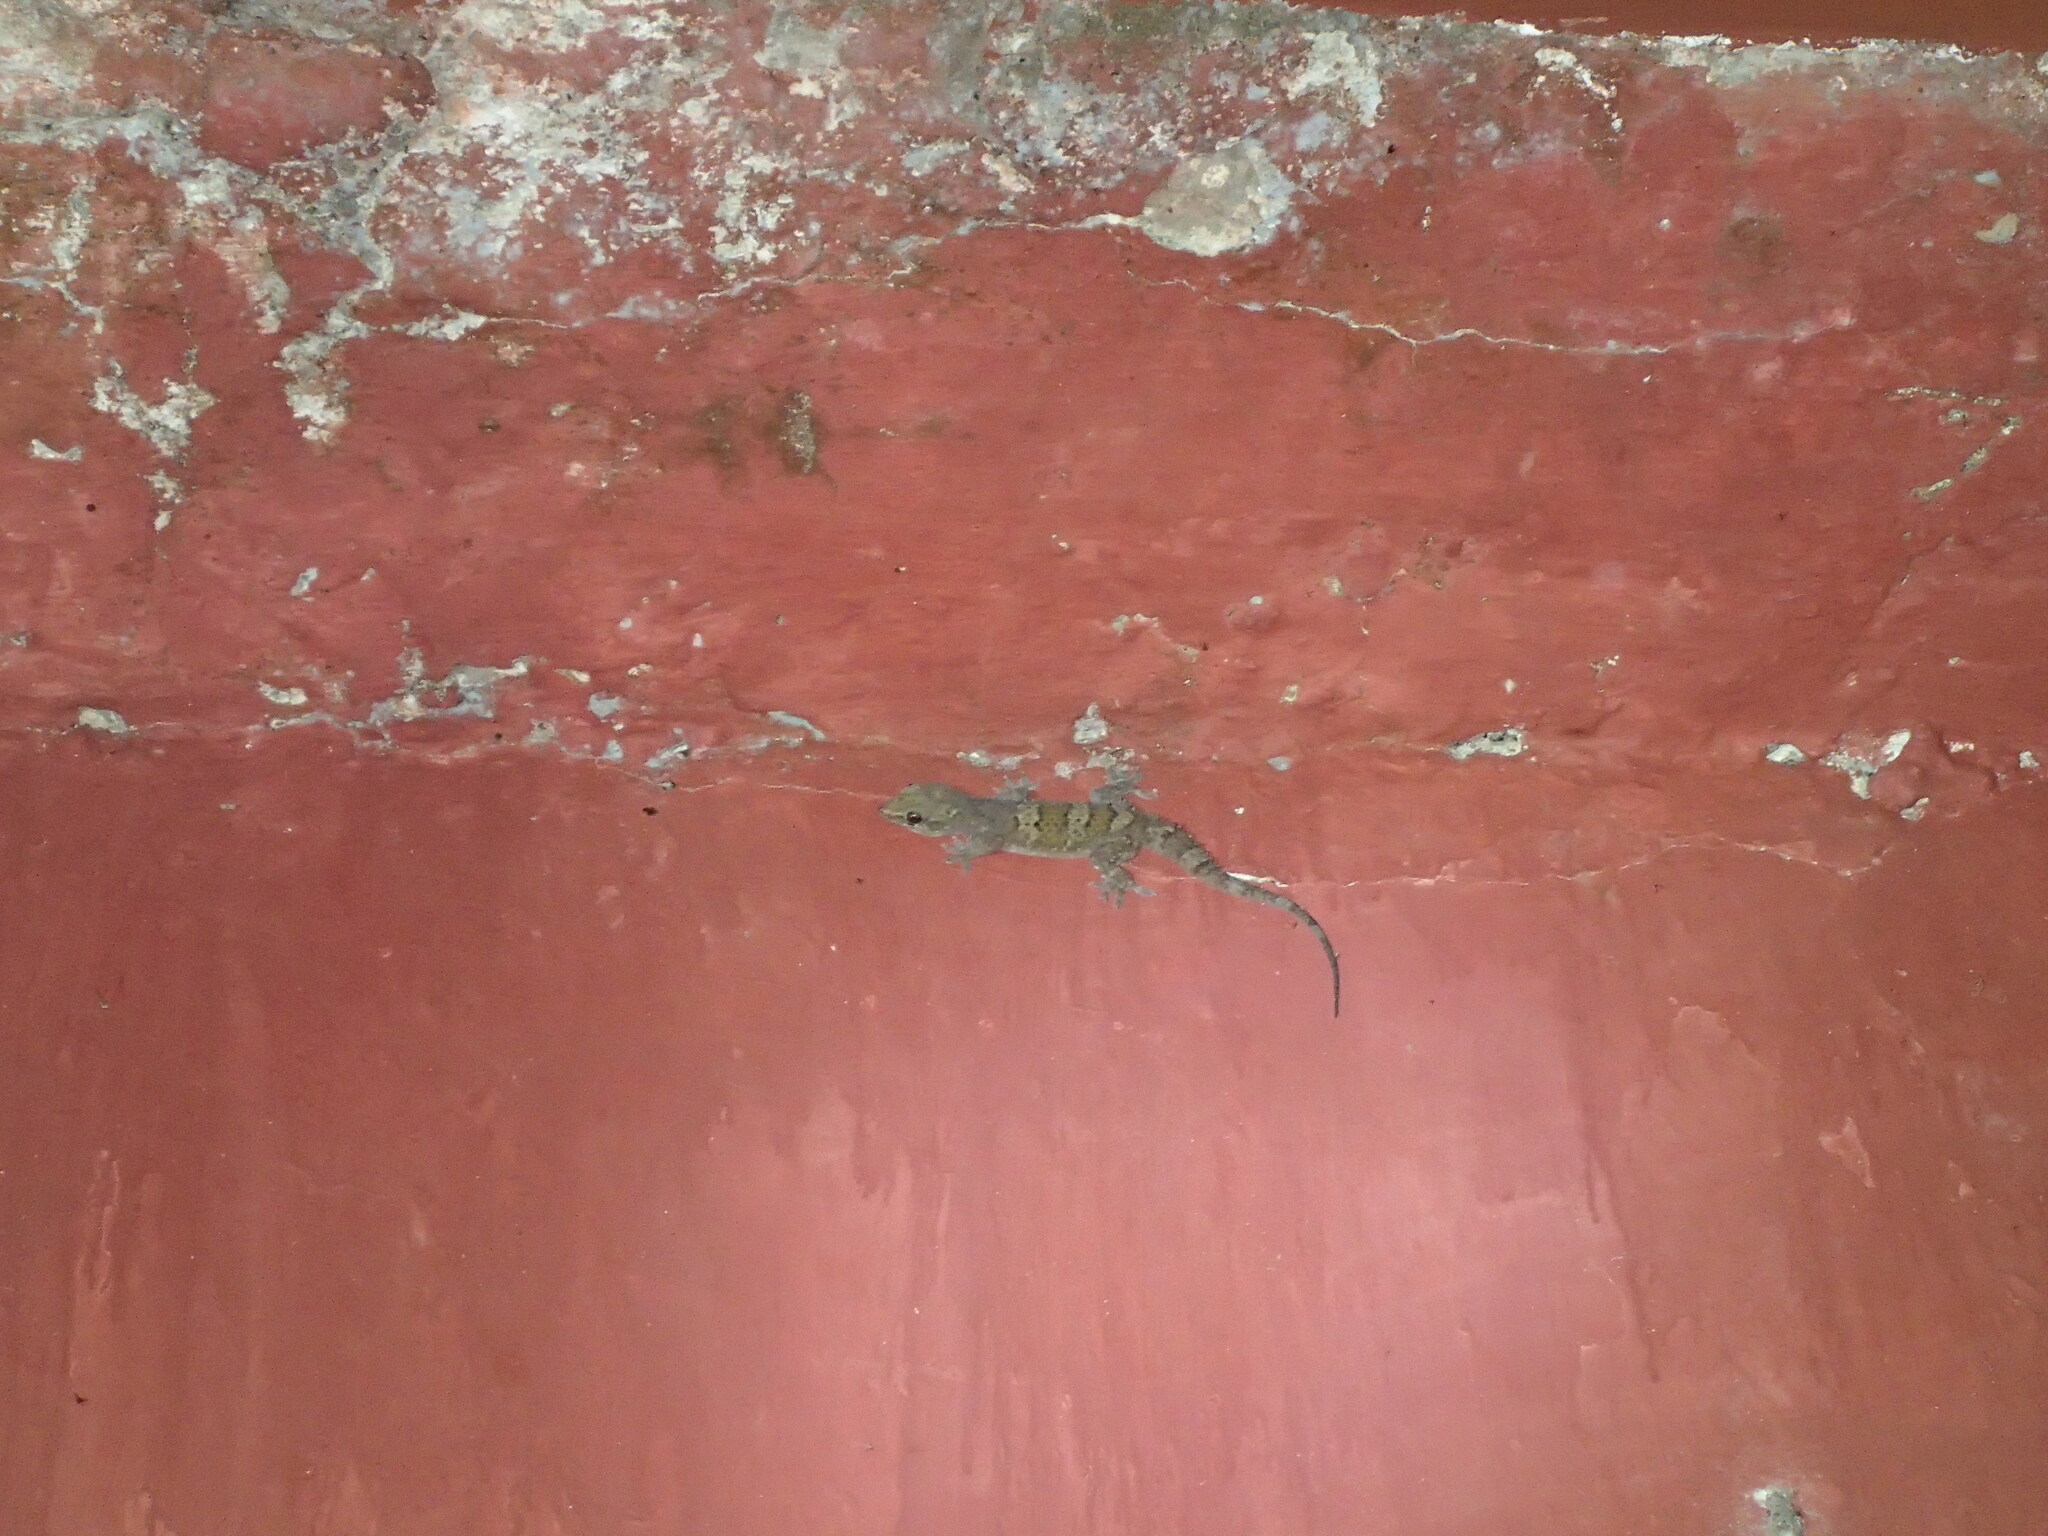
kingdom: Animalia
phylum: Chordata
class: Squamata
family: Gekkonidae
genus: Hemidactylus
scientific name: Hemidactylus kangerensis
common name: Kanger valley rock gecko
